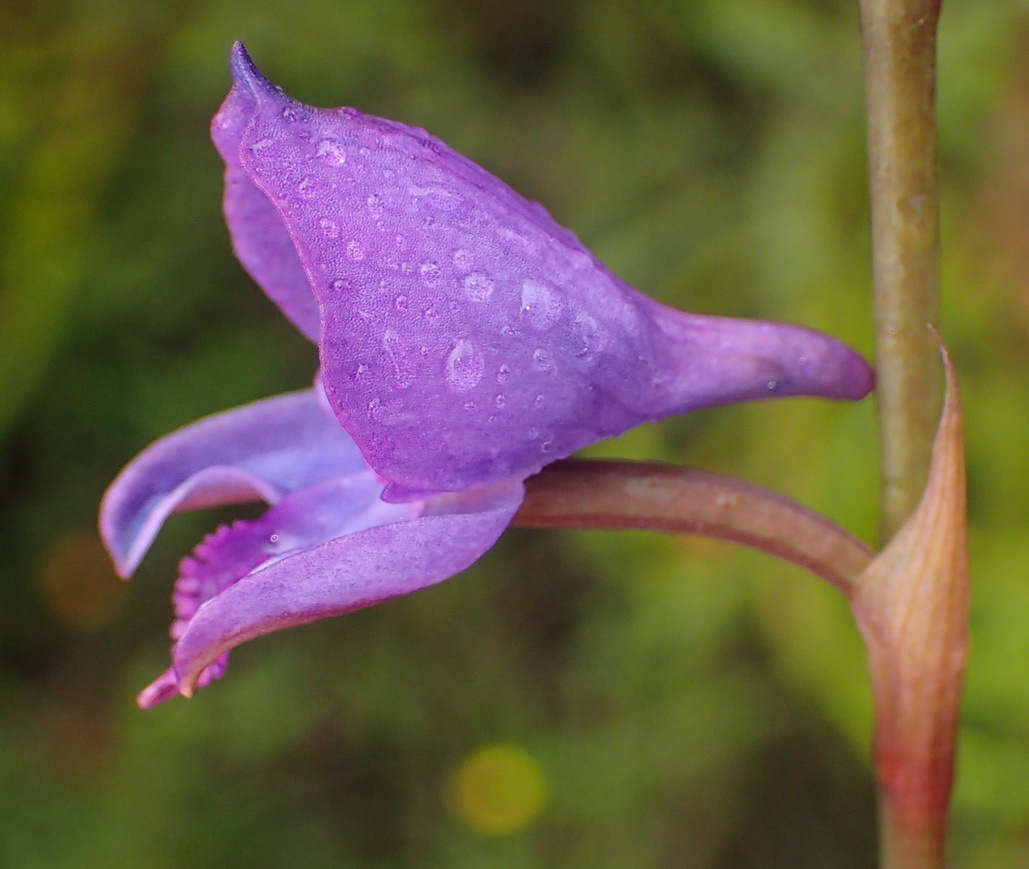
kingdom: Plantae
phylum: Tracheophyta
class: Liliopsida
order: Asparagales
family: Orchidaceae
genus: Disa
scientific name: Disa hians
